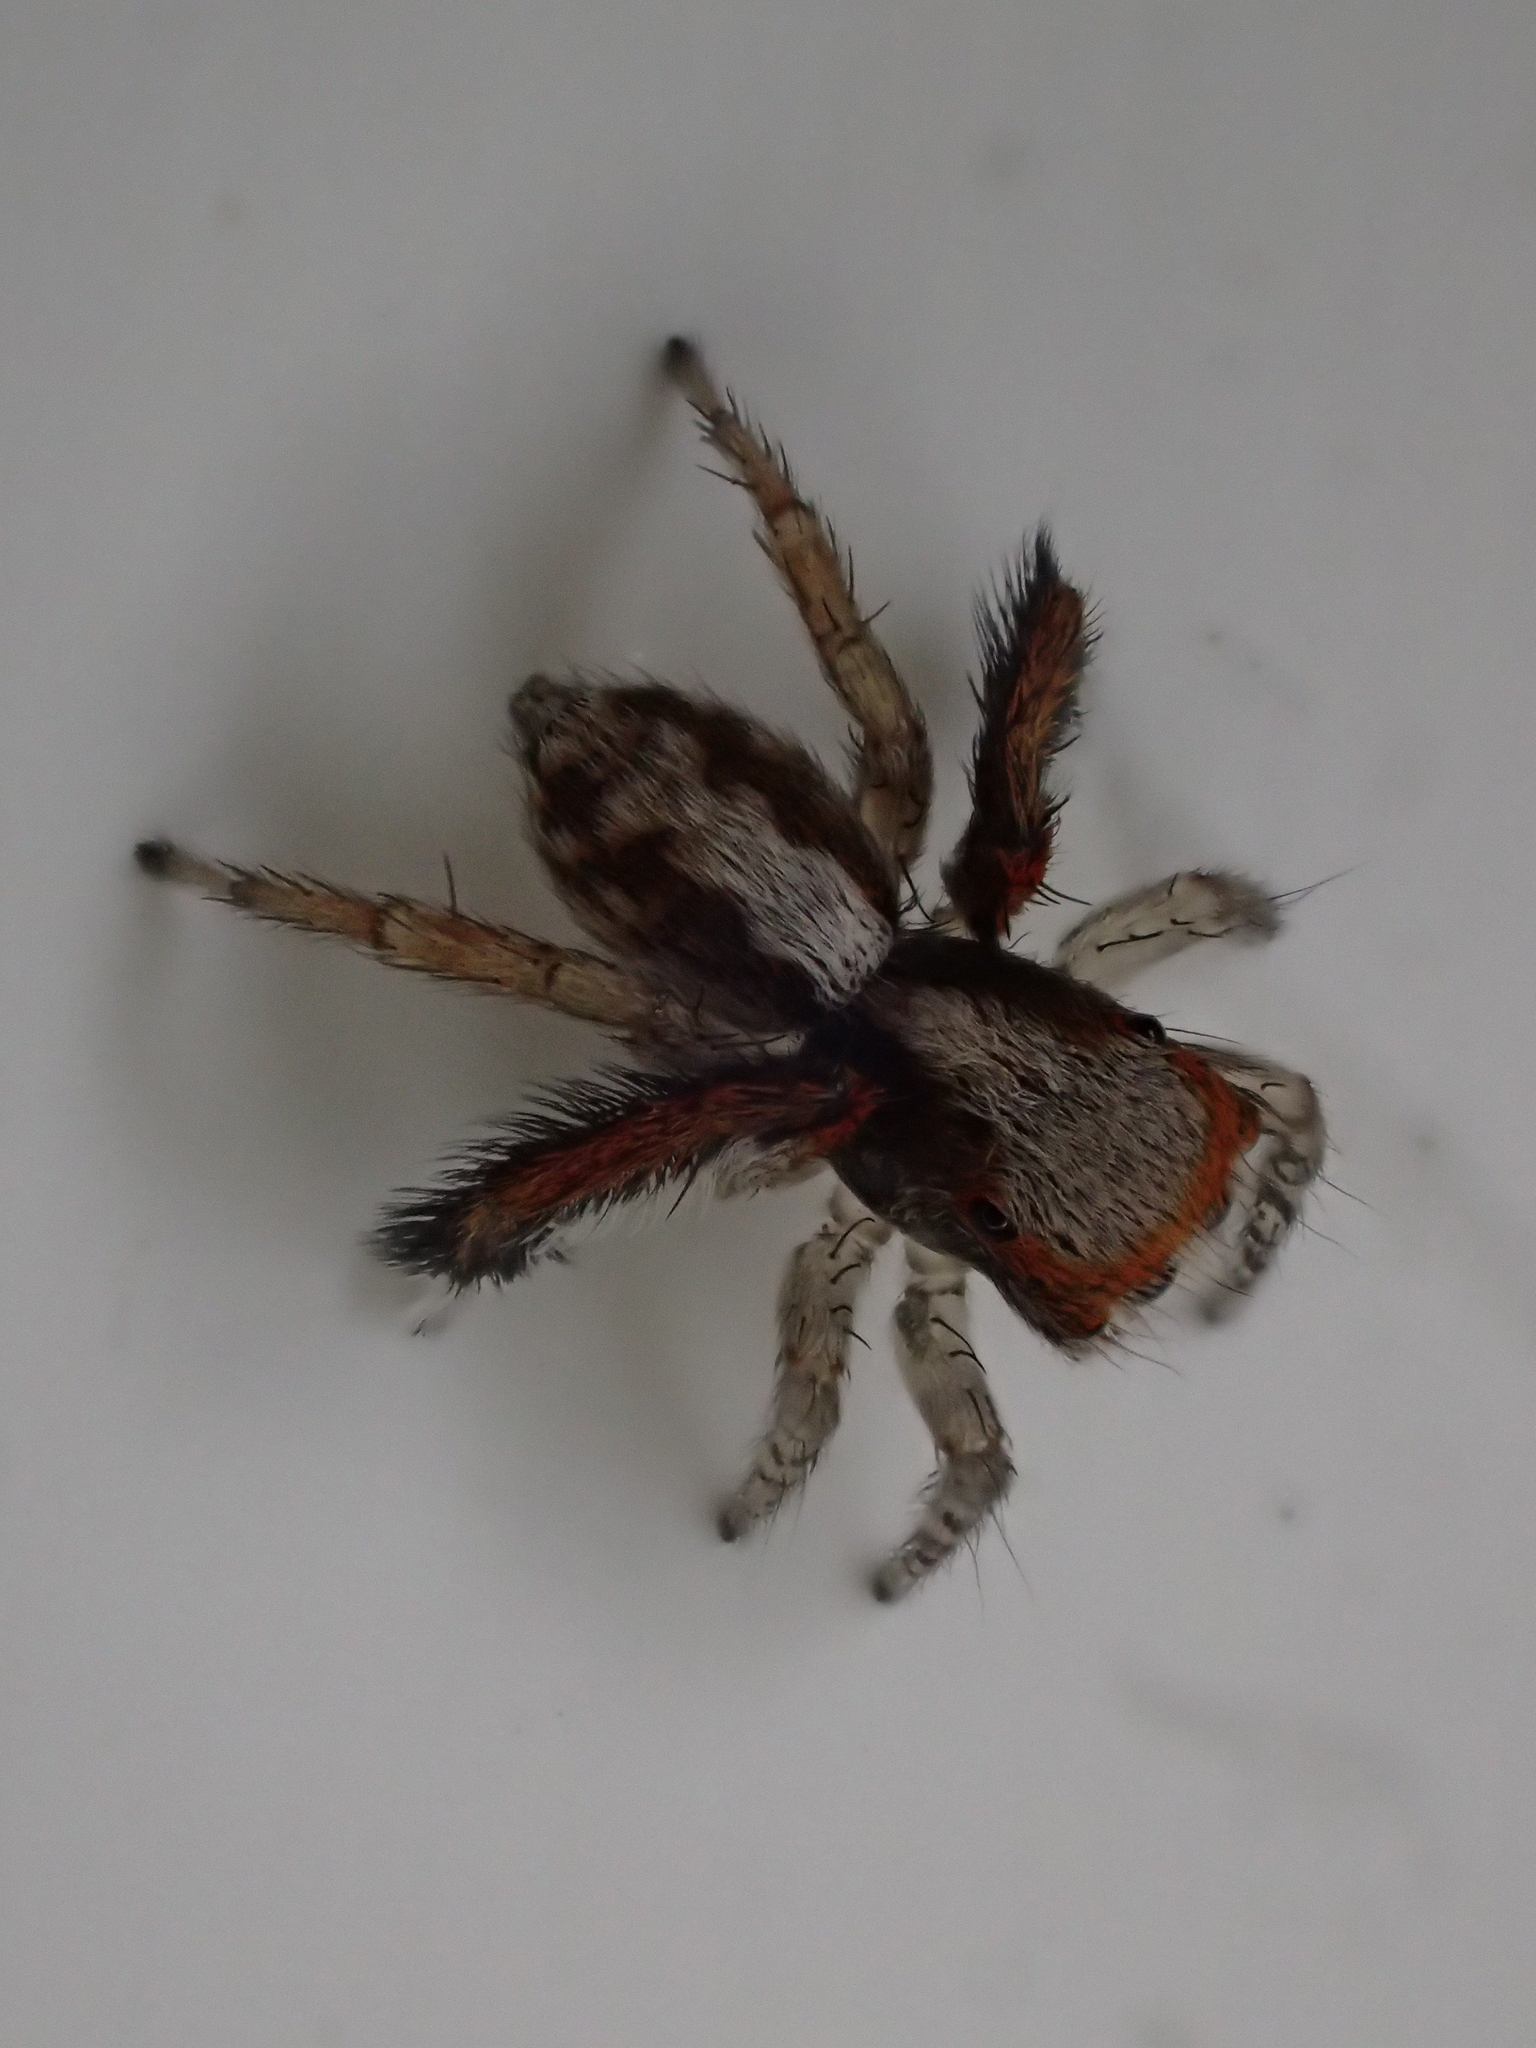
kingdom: Animalia
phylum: Arthropoda
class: Arachnida
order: Araneae
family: Salticidae
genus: Saitis
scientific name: Saitis barbipes
